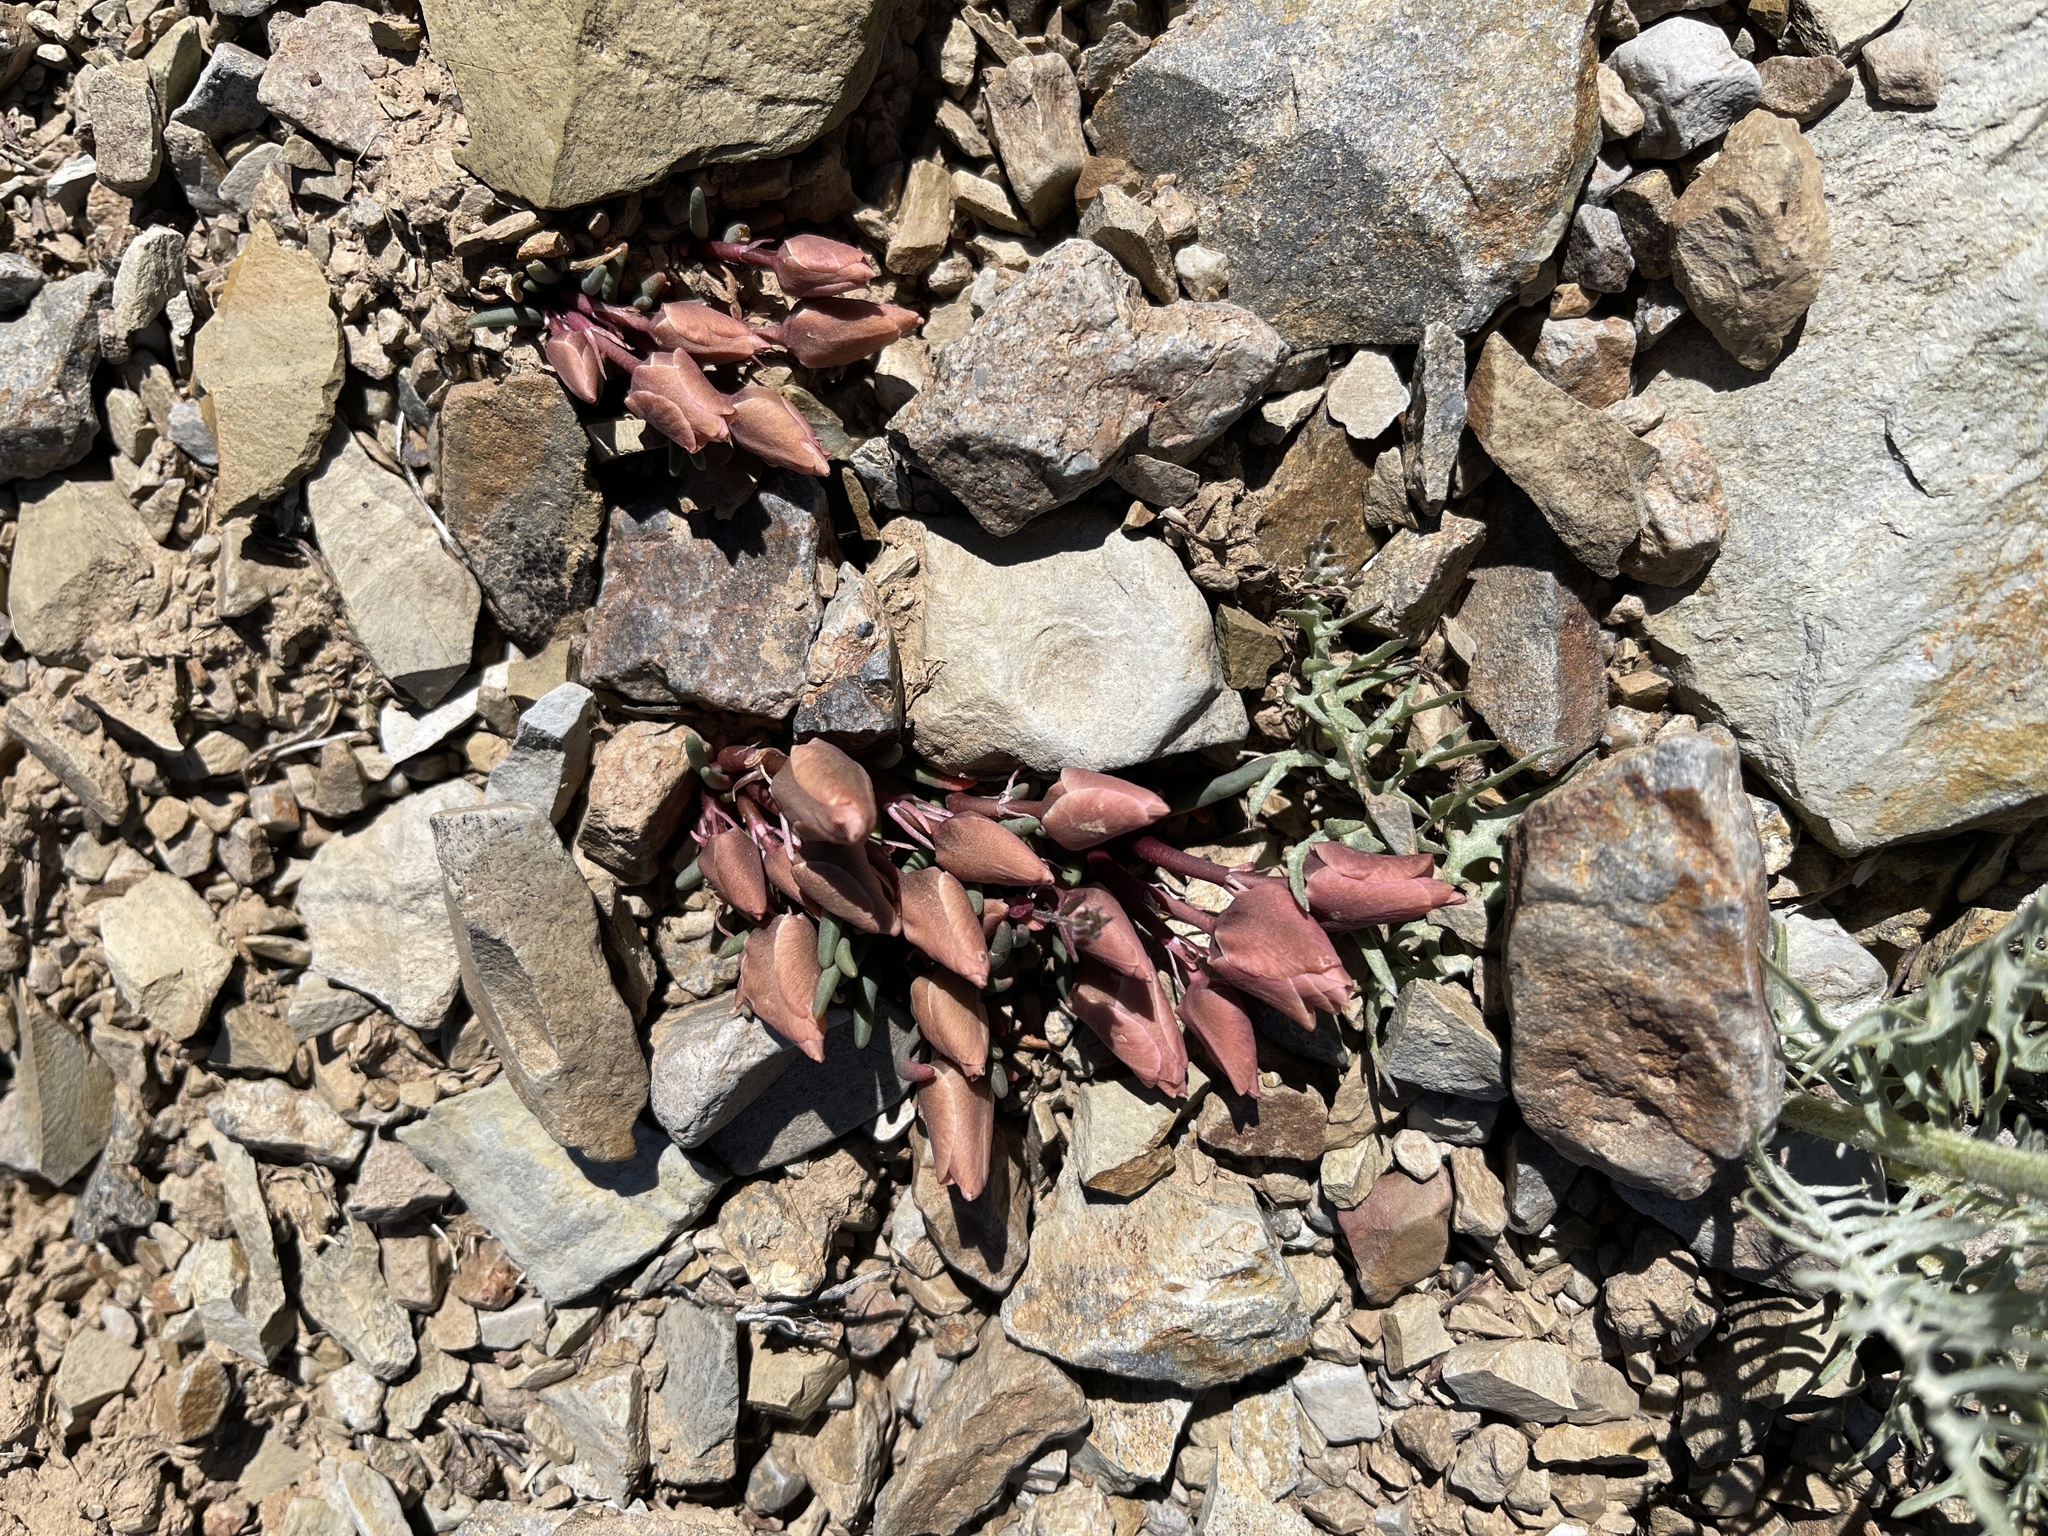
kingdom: Plantae
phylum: Tracheophyta
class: Magnoliopsida
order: Caryophyllales
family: Montiaceae
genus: Lewisia
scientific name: Lewisia rediviva
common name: Bitter-root
